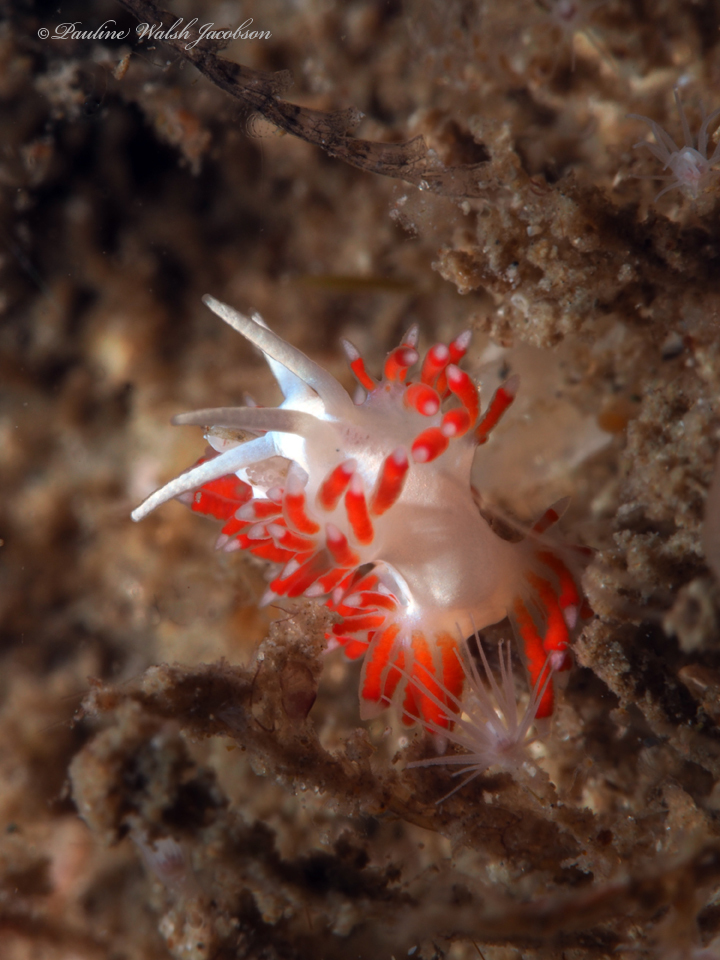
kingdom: Animalia
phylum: Mollusca
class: Gastropoda
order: Nudibranchia
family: Flabellinidae
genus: Flabellina
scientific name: Flabellina dushia
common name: Dushia flabellina
